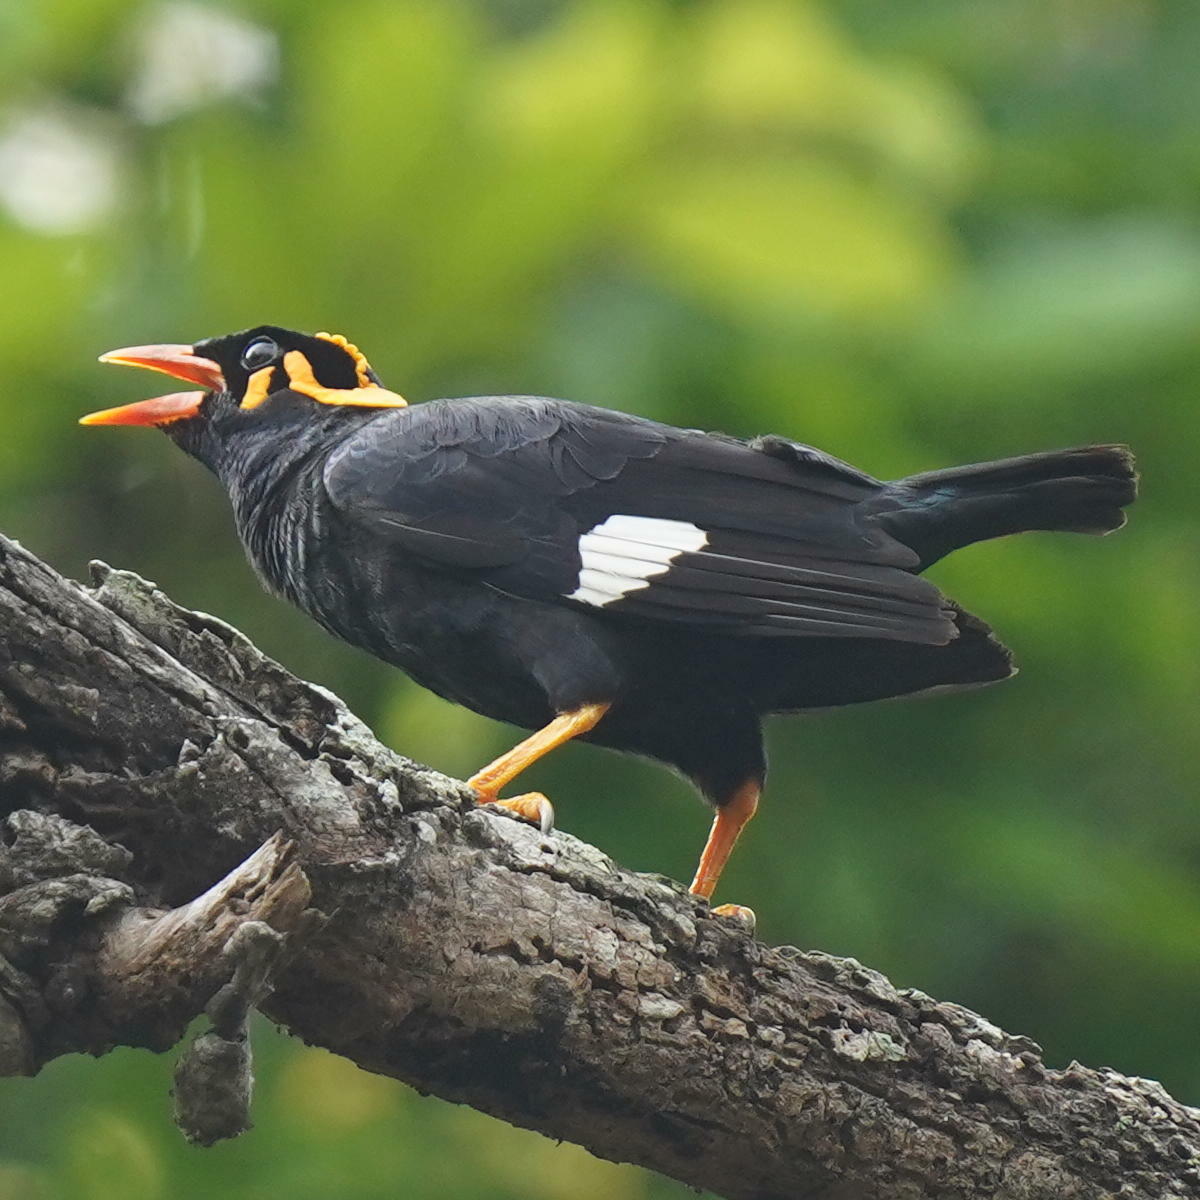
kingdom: Animalia
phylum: Chordata
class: Aves
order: Passeriformes
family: Sturnidae
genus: Gracula
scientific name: Gracula indica
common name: Southern hill myna
